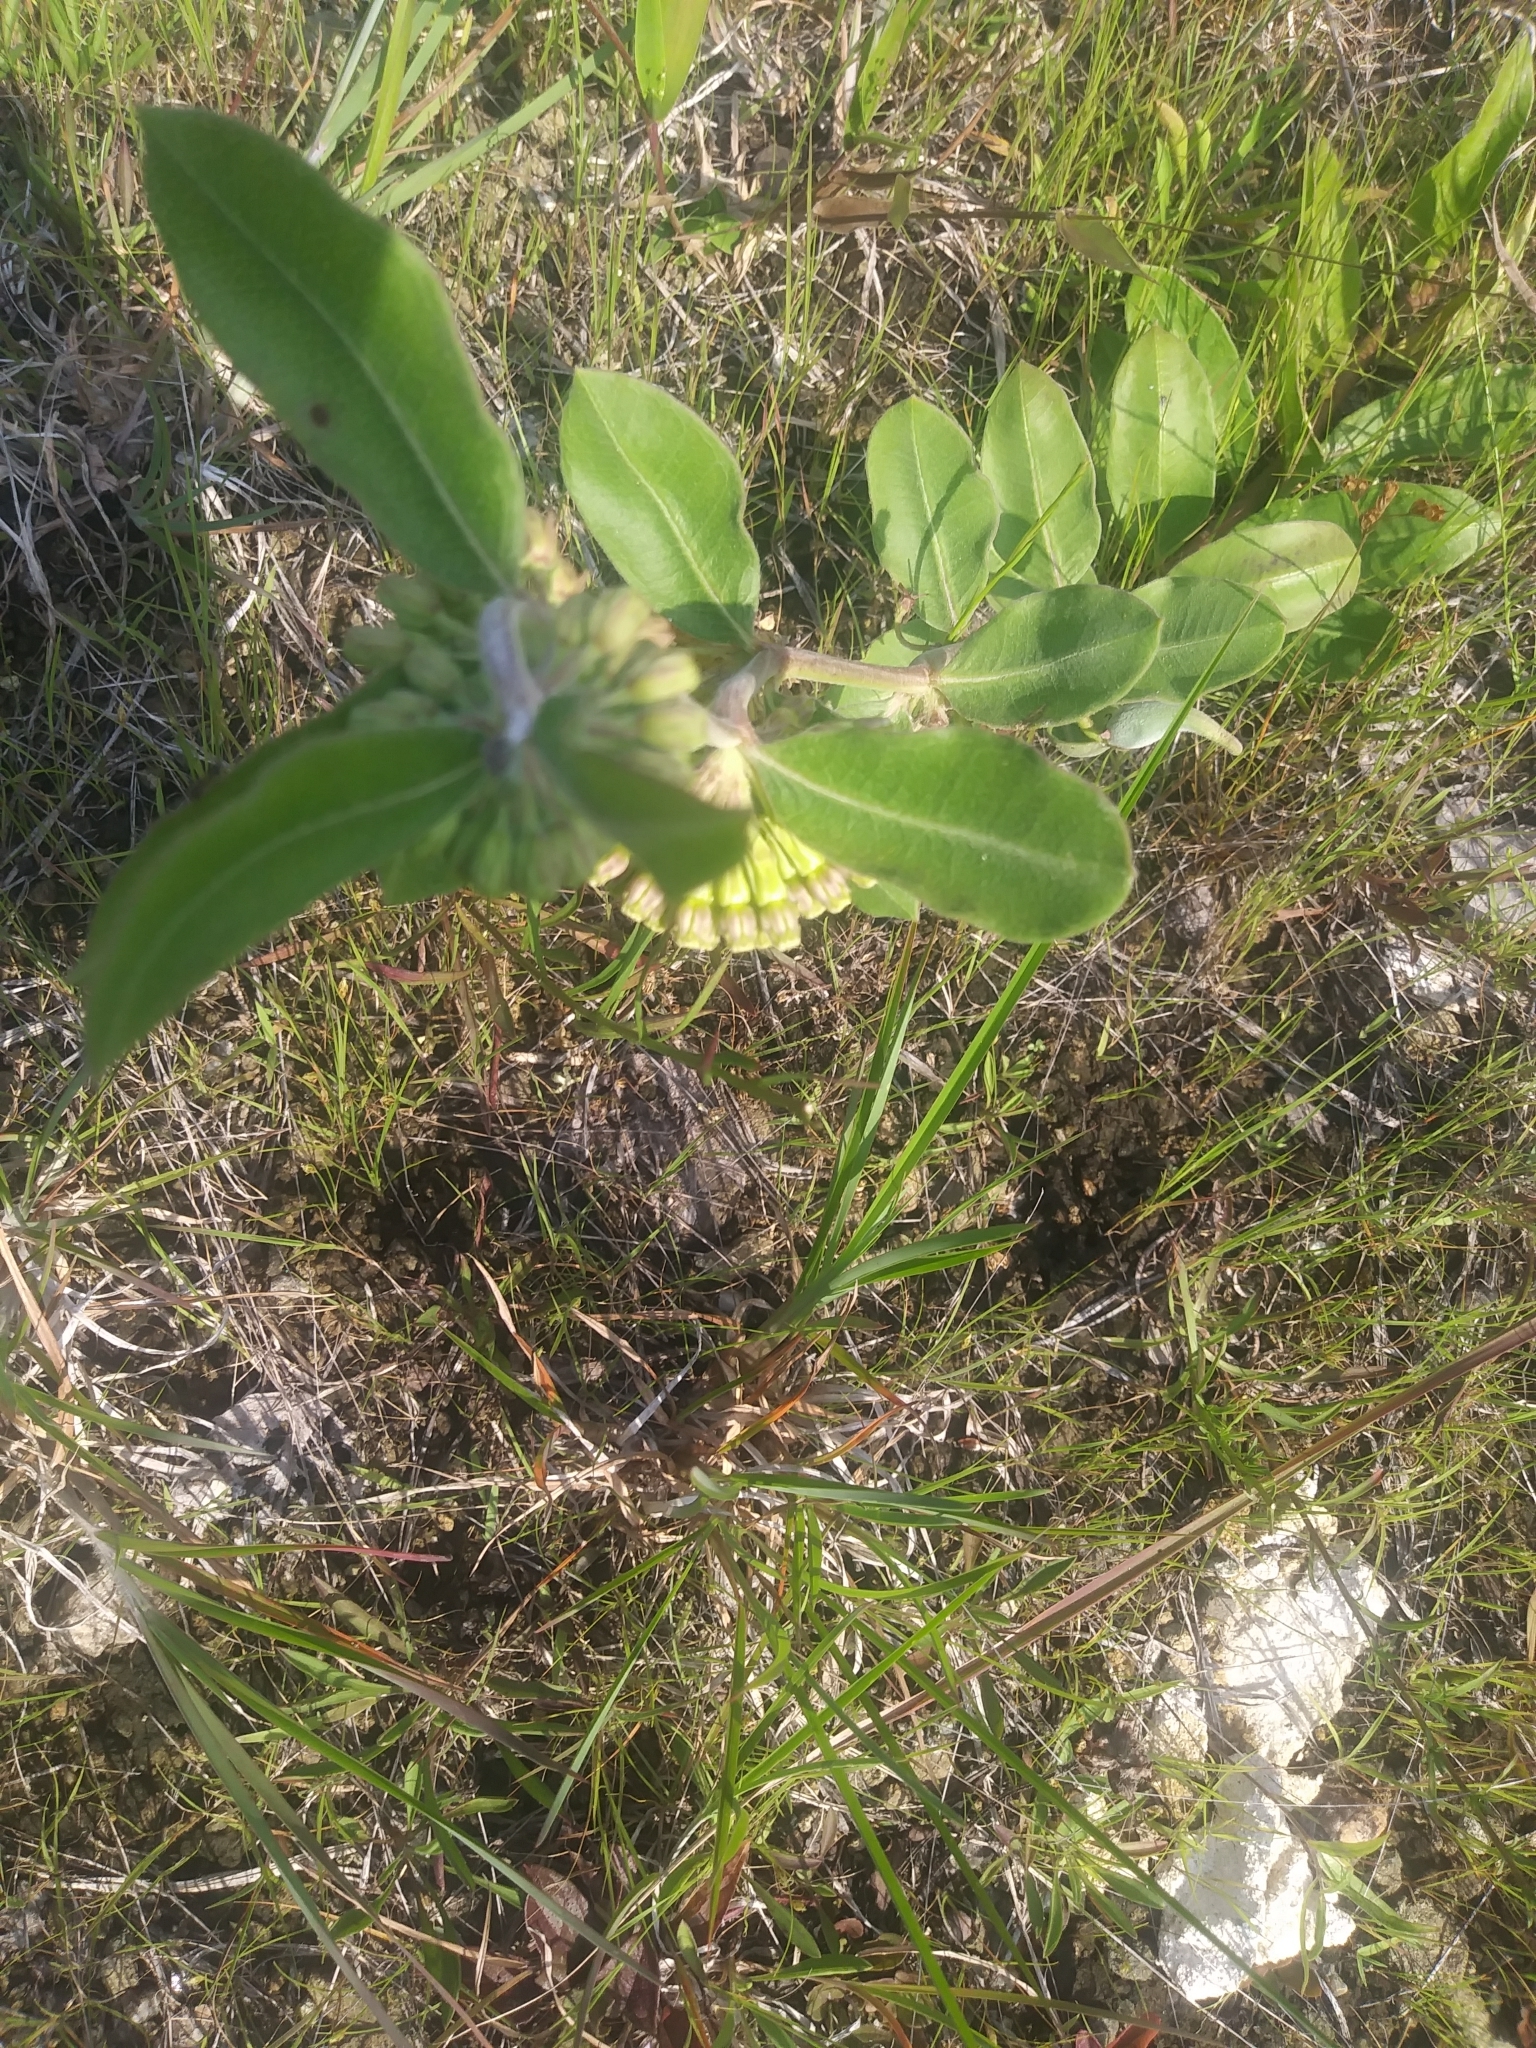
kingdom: Plantae
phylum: Tracheophyta
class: Magnoliopsida
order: Gentianales
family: Apocynaceae
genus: Asclepias
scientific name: Asclepias viridiflora
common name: Green comet milkweed
